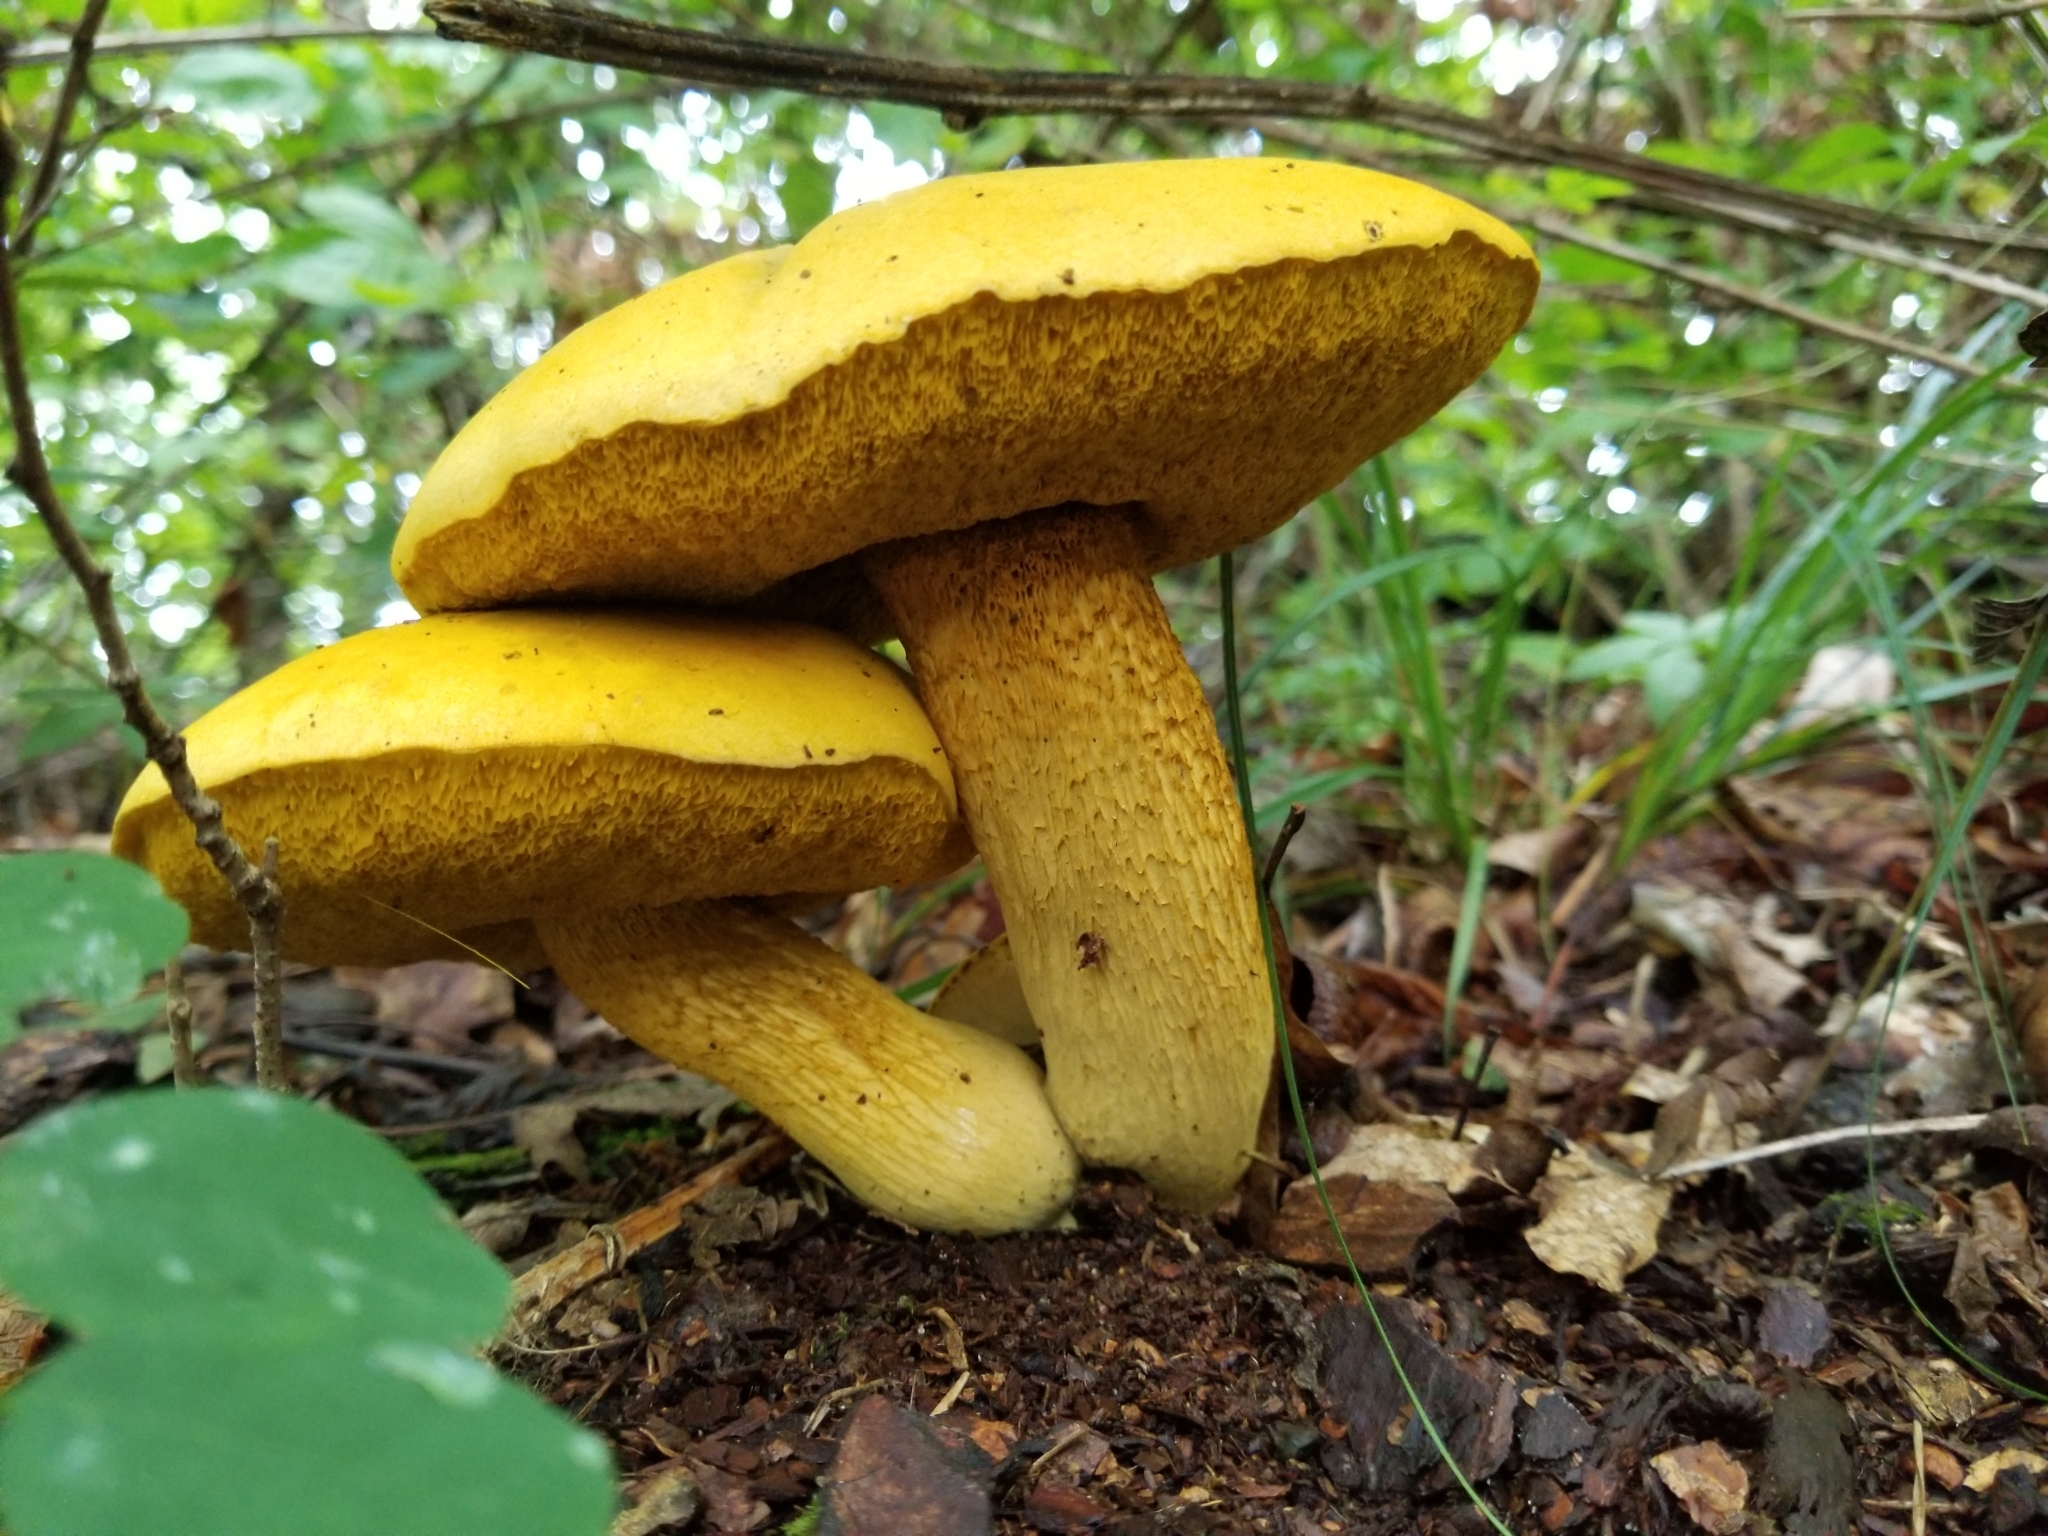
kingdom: Fungi
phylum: Basidiomycota
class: Agaricomycetes
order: Boletales
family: Boletaceae
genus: Retiboletus
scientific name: Retiboletus ornatipes
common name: Ornate-stalked bolete
